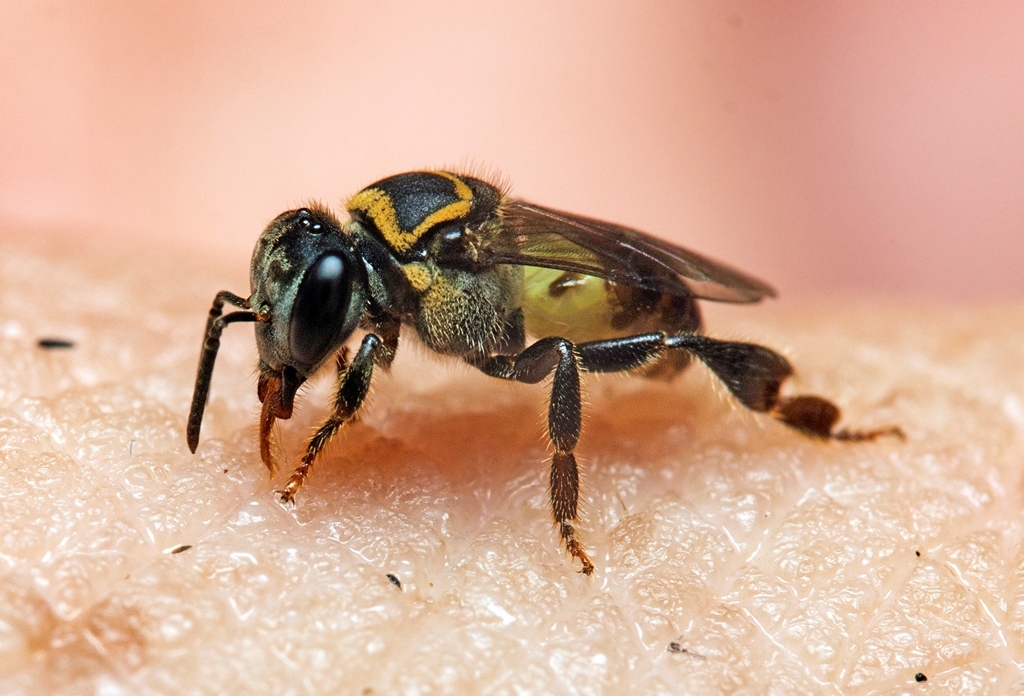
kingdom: Animalia
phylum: Arthropoda
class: Insecta
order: Hymenoptera
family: Apidae
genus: Lepidotrigona
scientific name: Lepidotrigona ventralis
